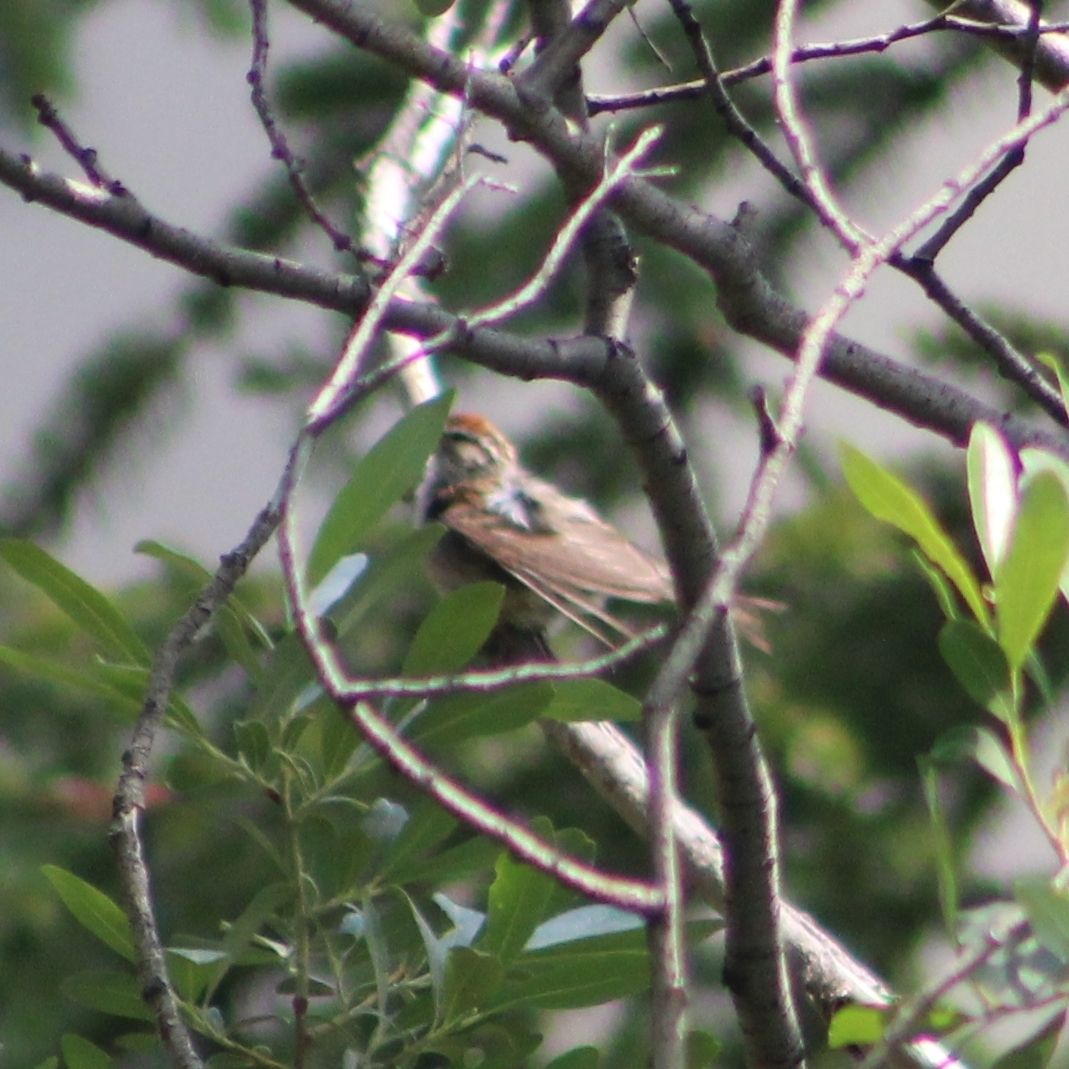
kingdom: Animalia
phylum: Chordata
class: Aves
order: Passeriformes
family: Passerellidae
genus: Spizella
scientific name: Spizella passerina
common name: Chipping sparrow
